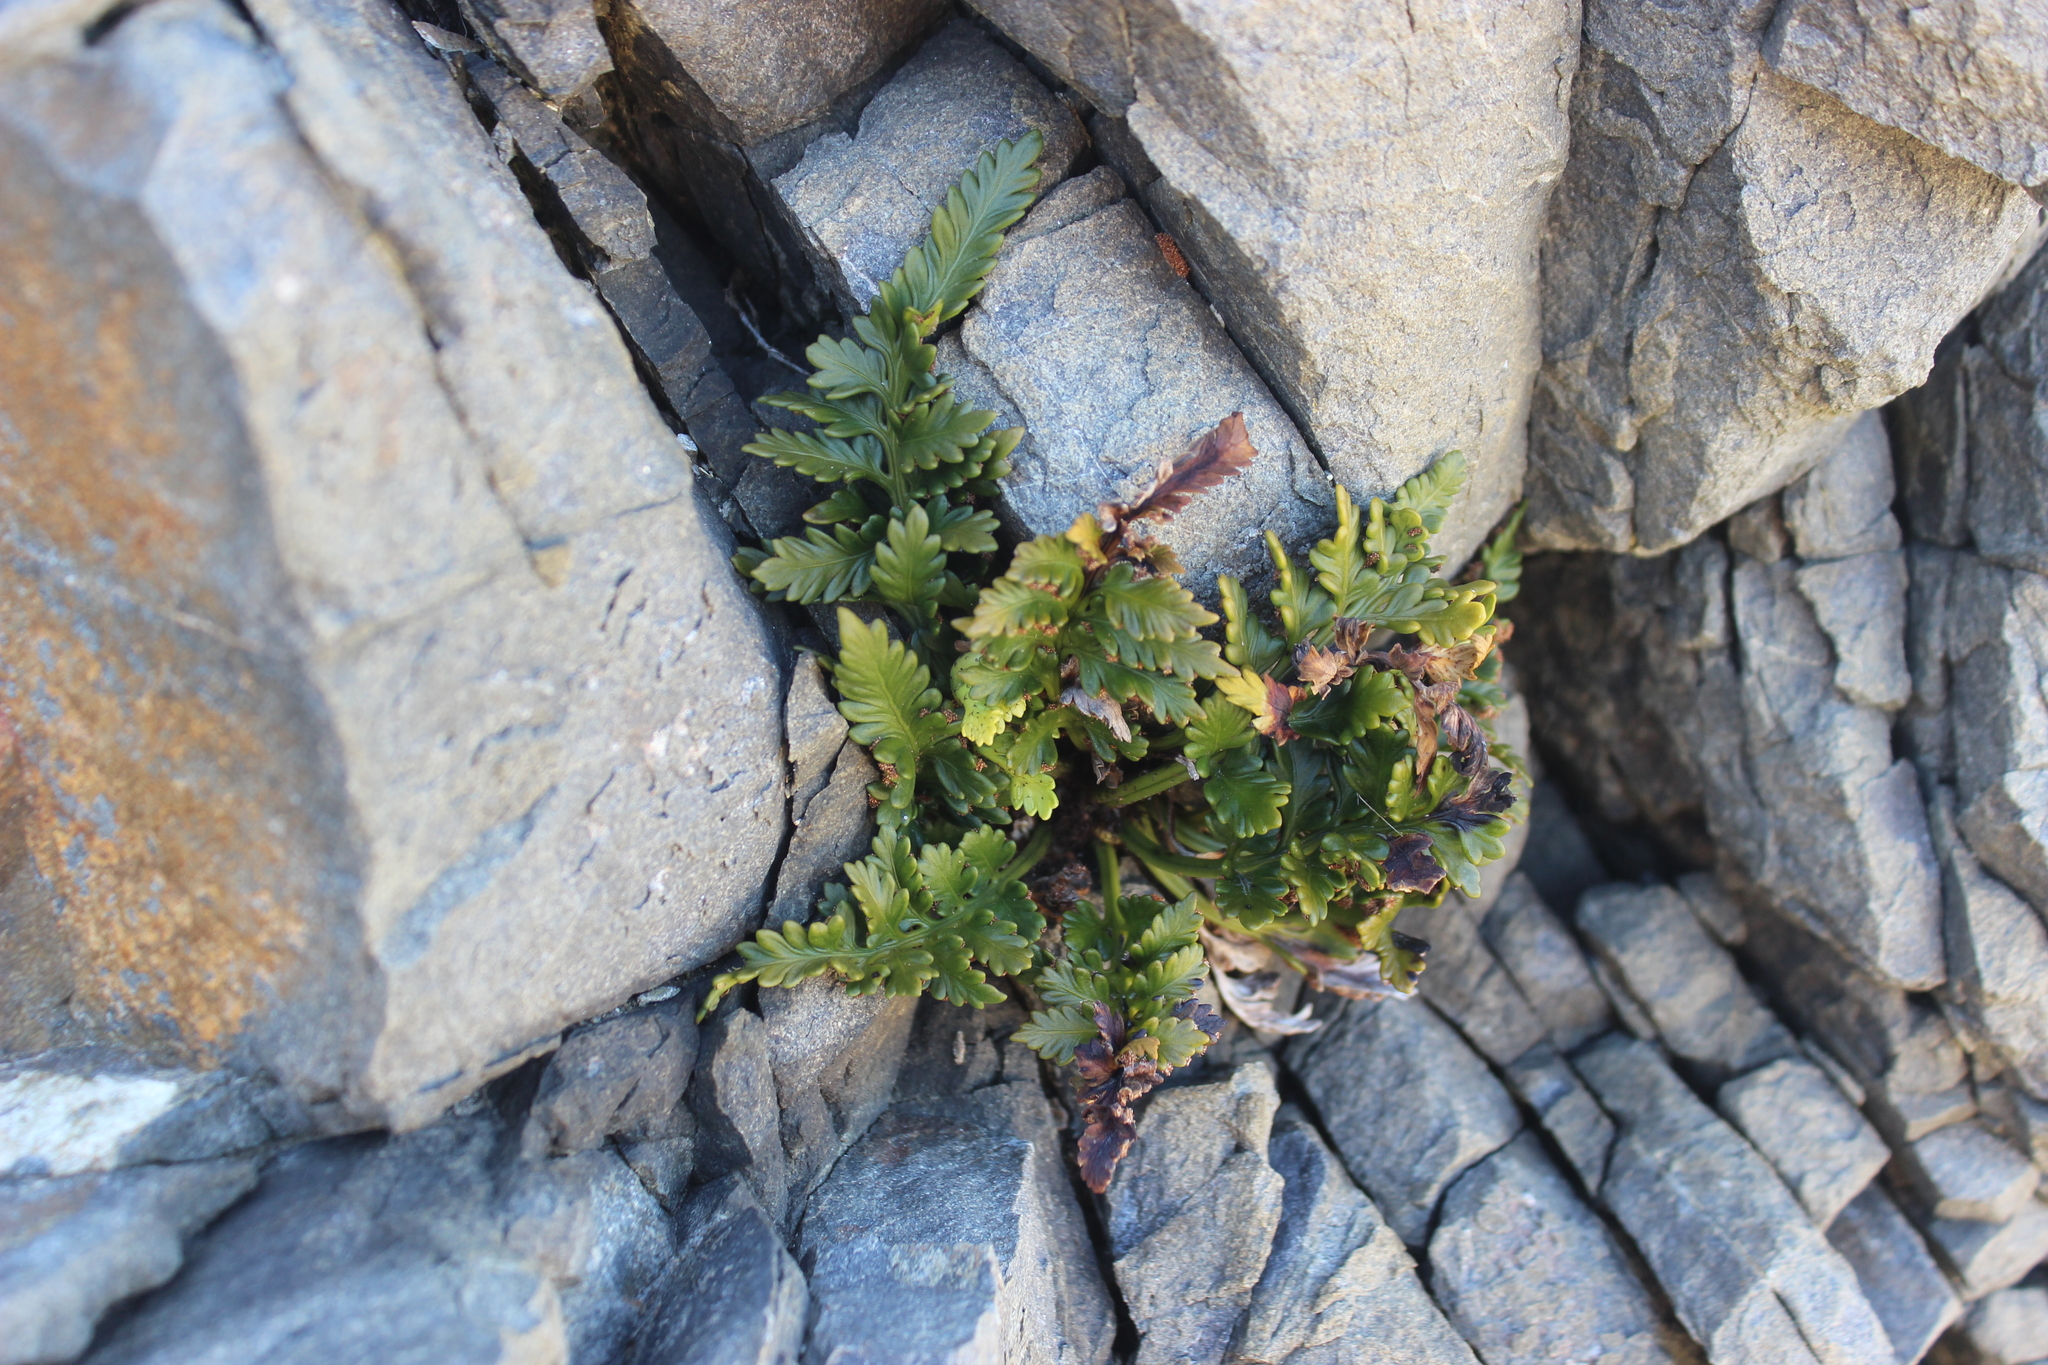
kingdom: Plantae
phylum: Tracheophyta
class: Polypodiopsida
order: Polypodiales
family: Aspleniaceae
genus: Asplenium
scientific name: Asplenium appendiculatum
